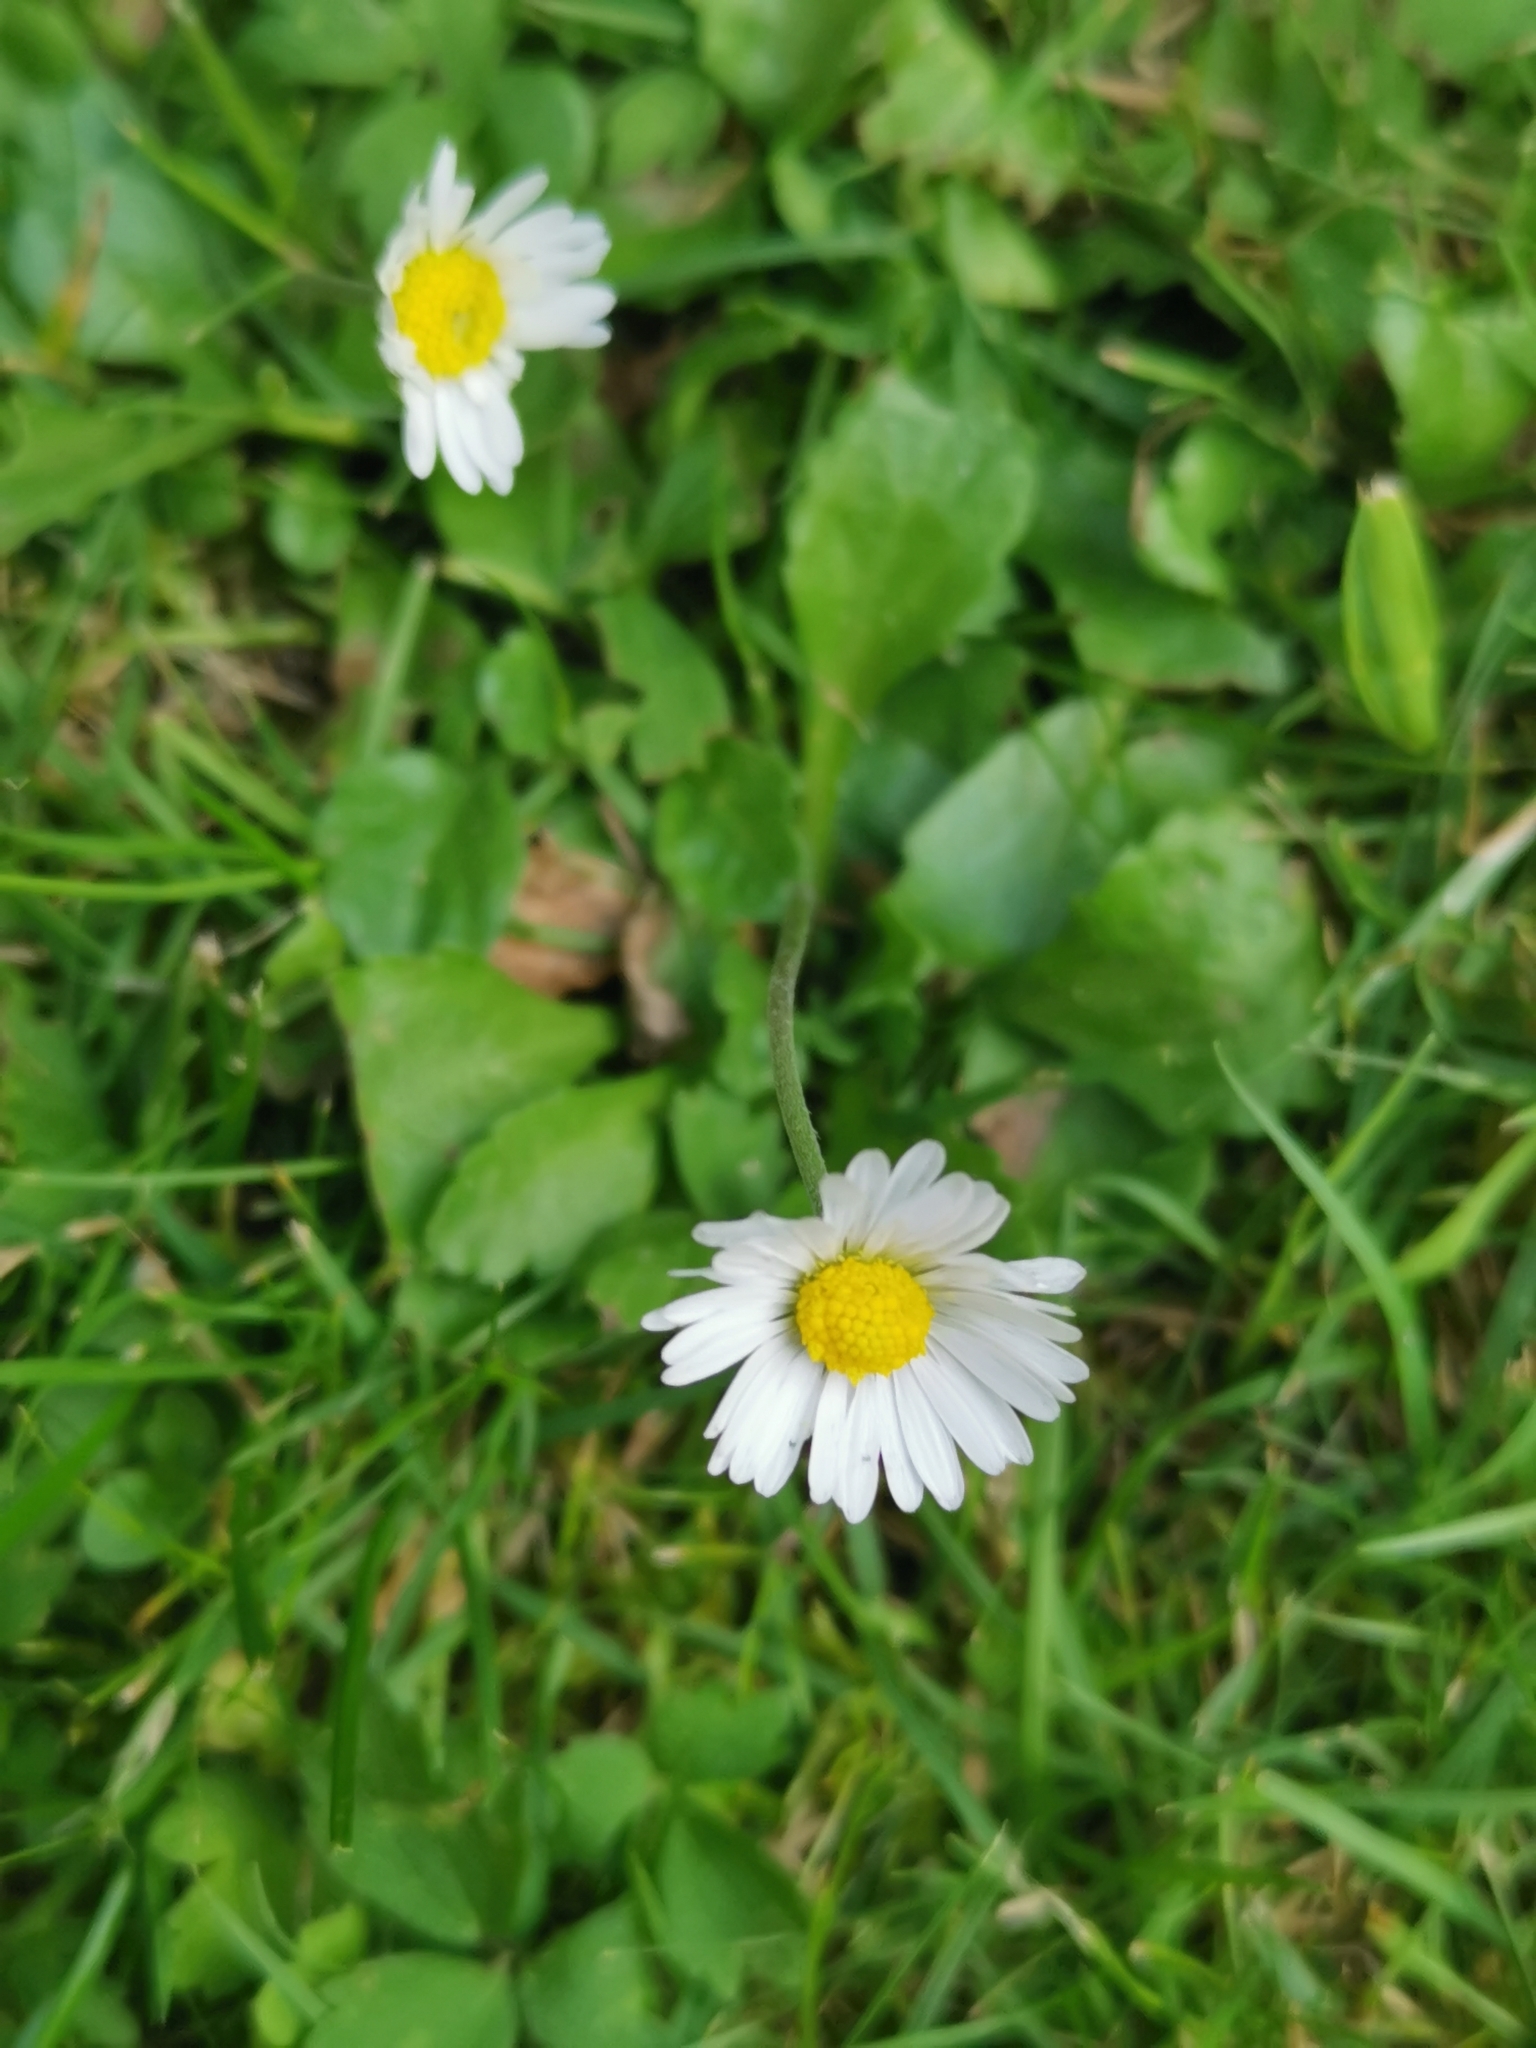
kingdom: Plantae
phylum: Tracheophyta
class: Magnoliopsida
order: Asterales
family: Asteraceae
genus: Bellis
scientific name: Bellis perennis
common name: Lawndaisy
